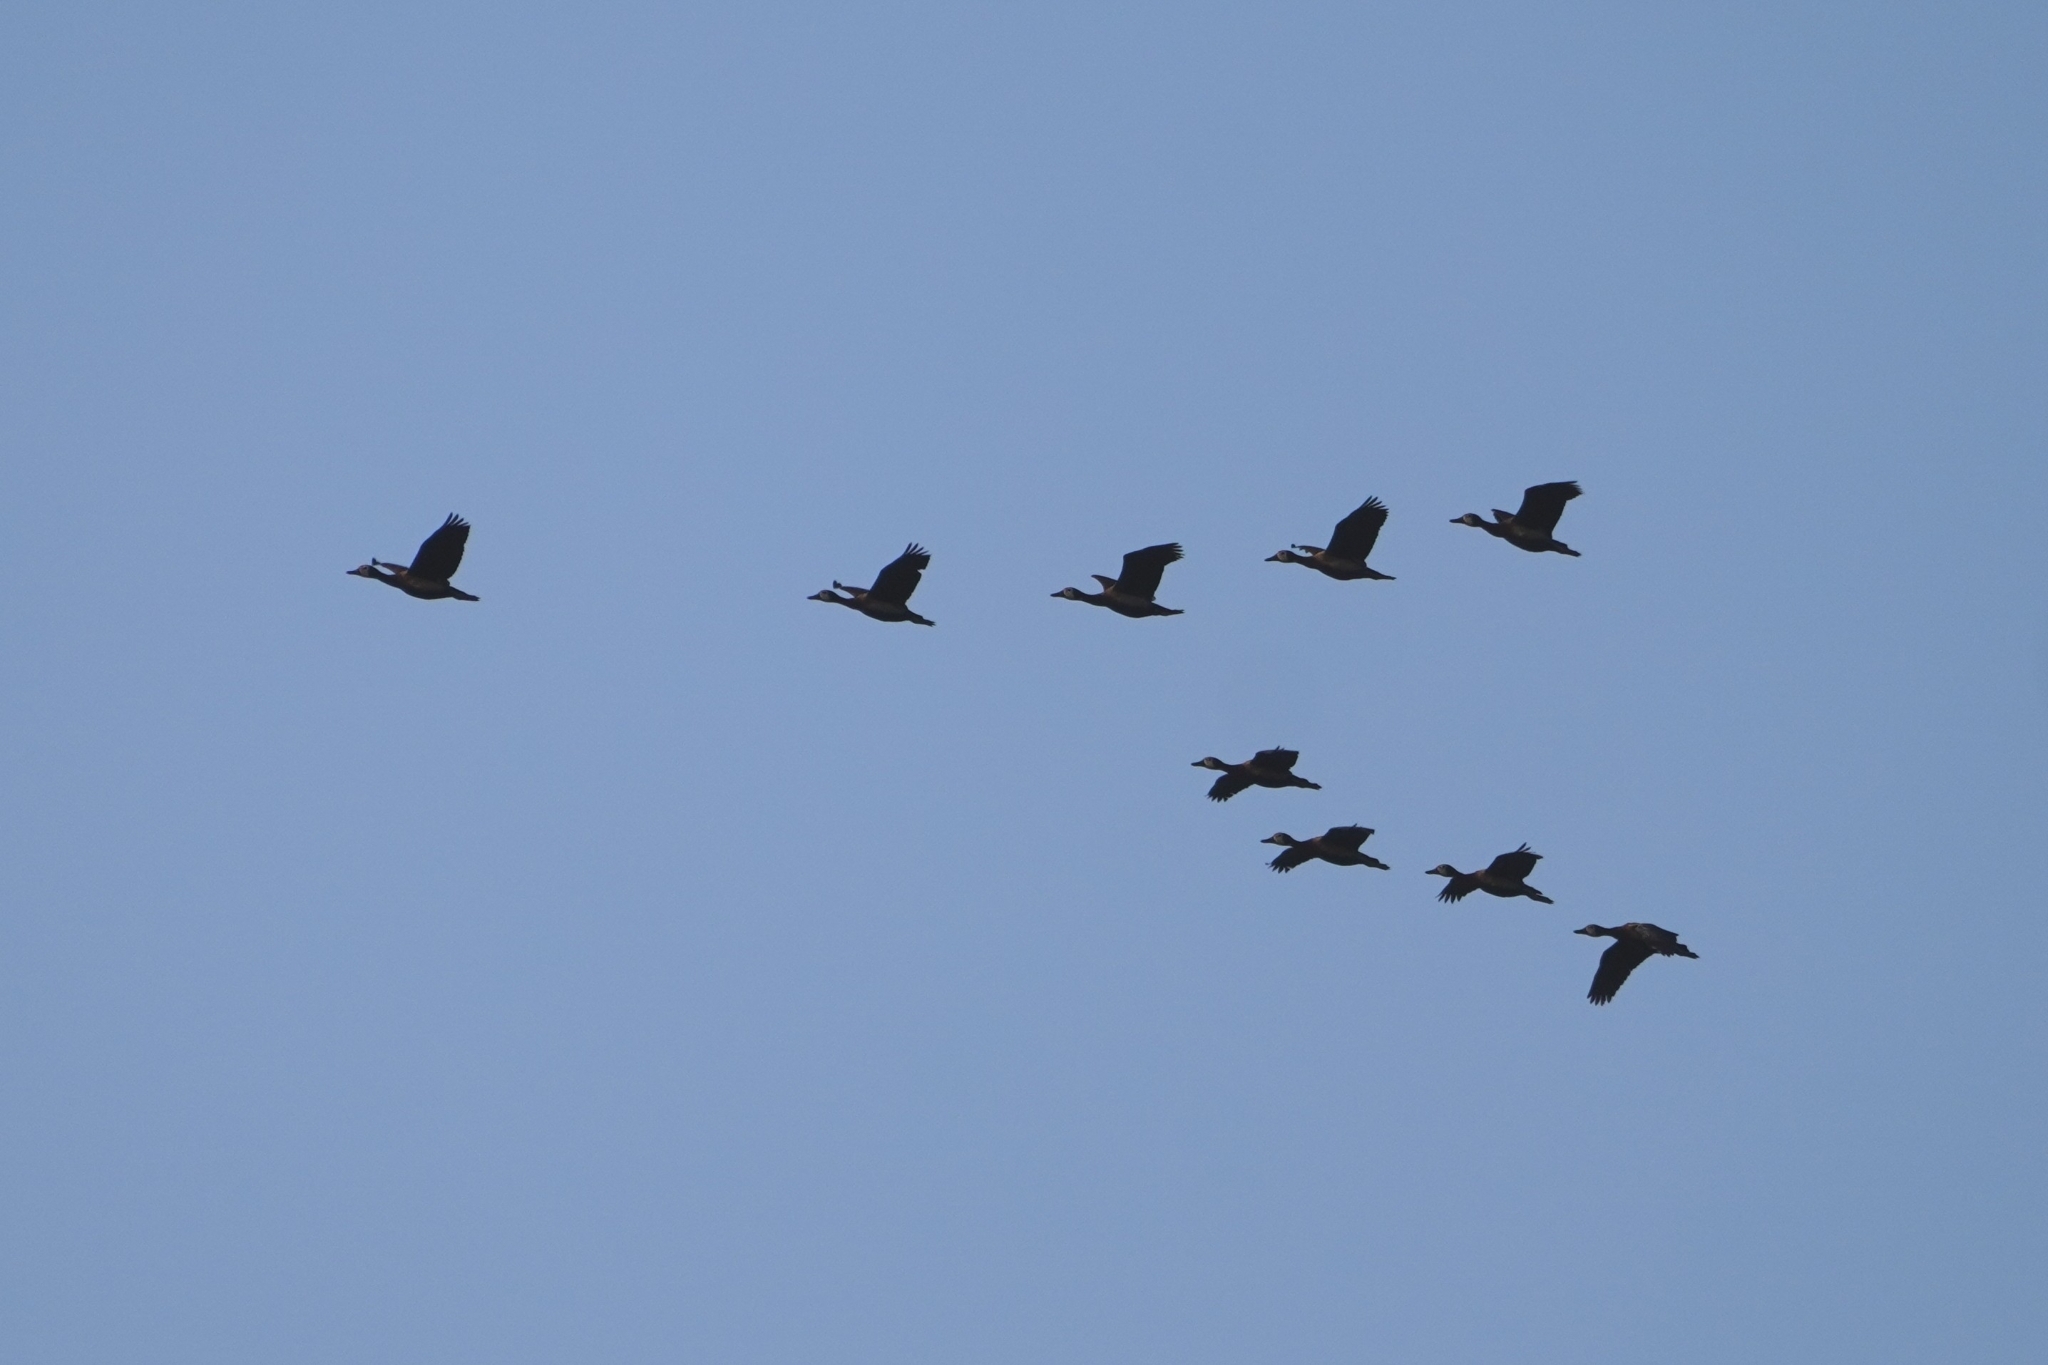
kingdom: Animalia
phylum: Chordata
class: Aves
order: Anseriformes
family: Anatidae
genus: Dendrocygna
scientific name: Dendrocygna viduata
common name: White-faced whistling duck
